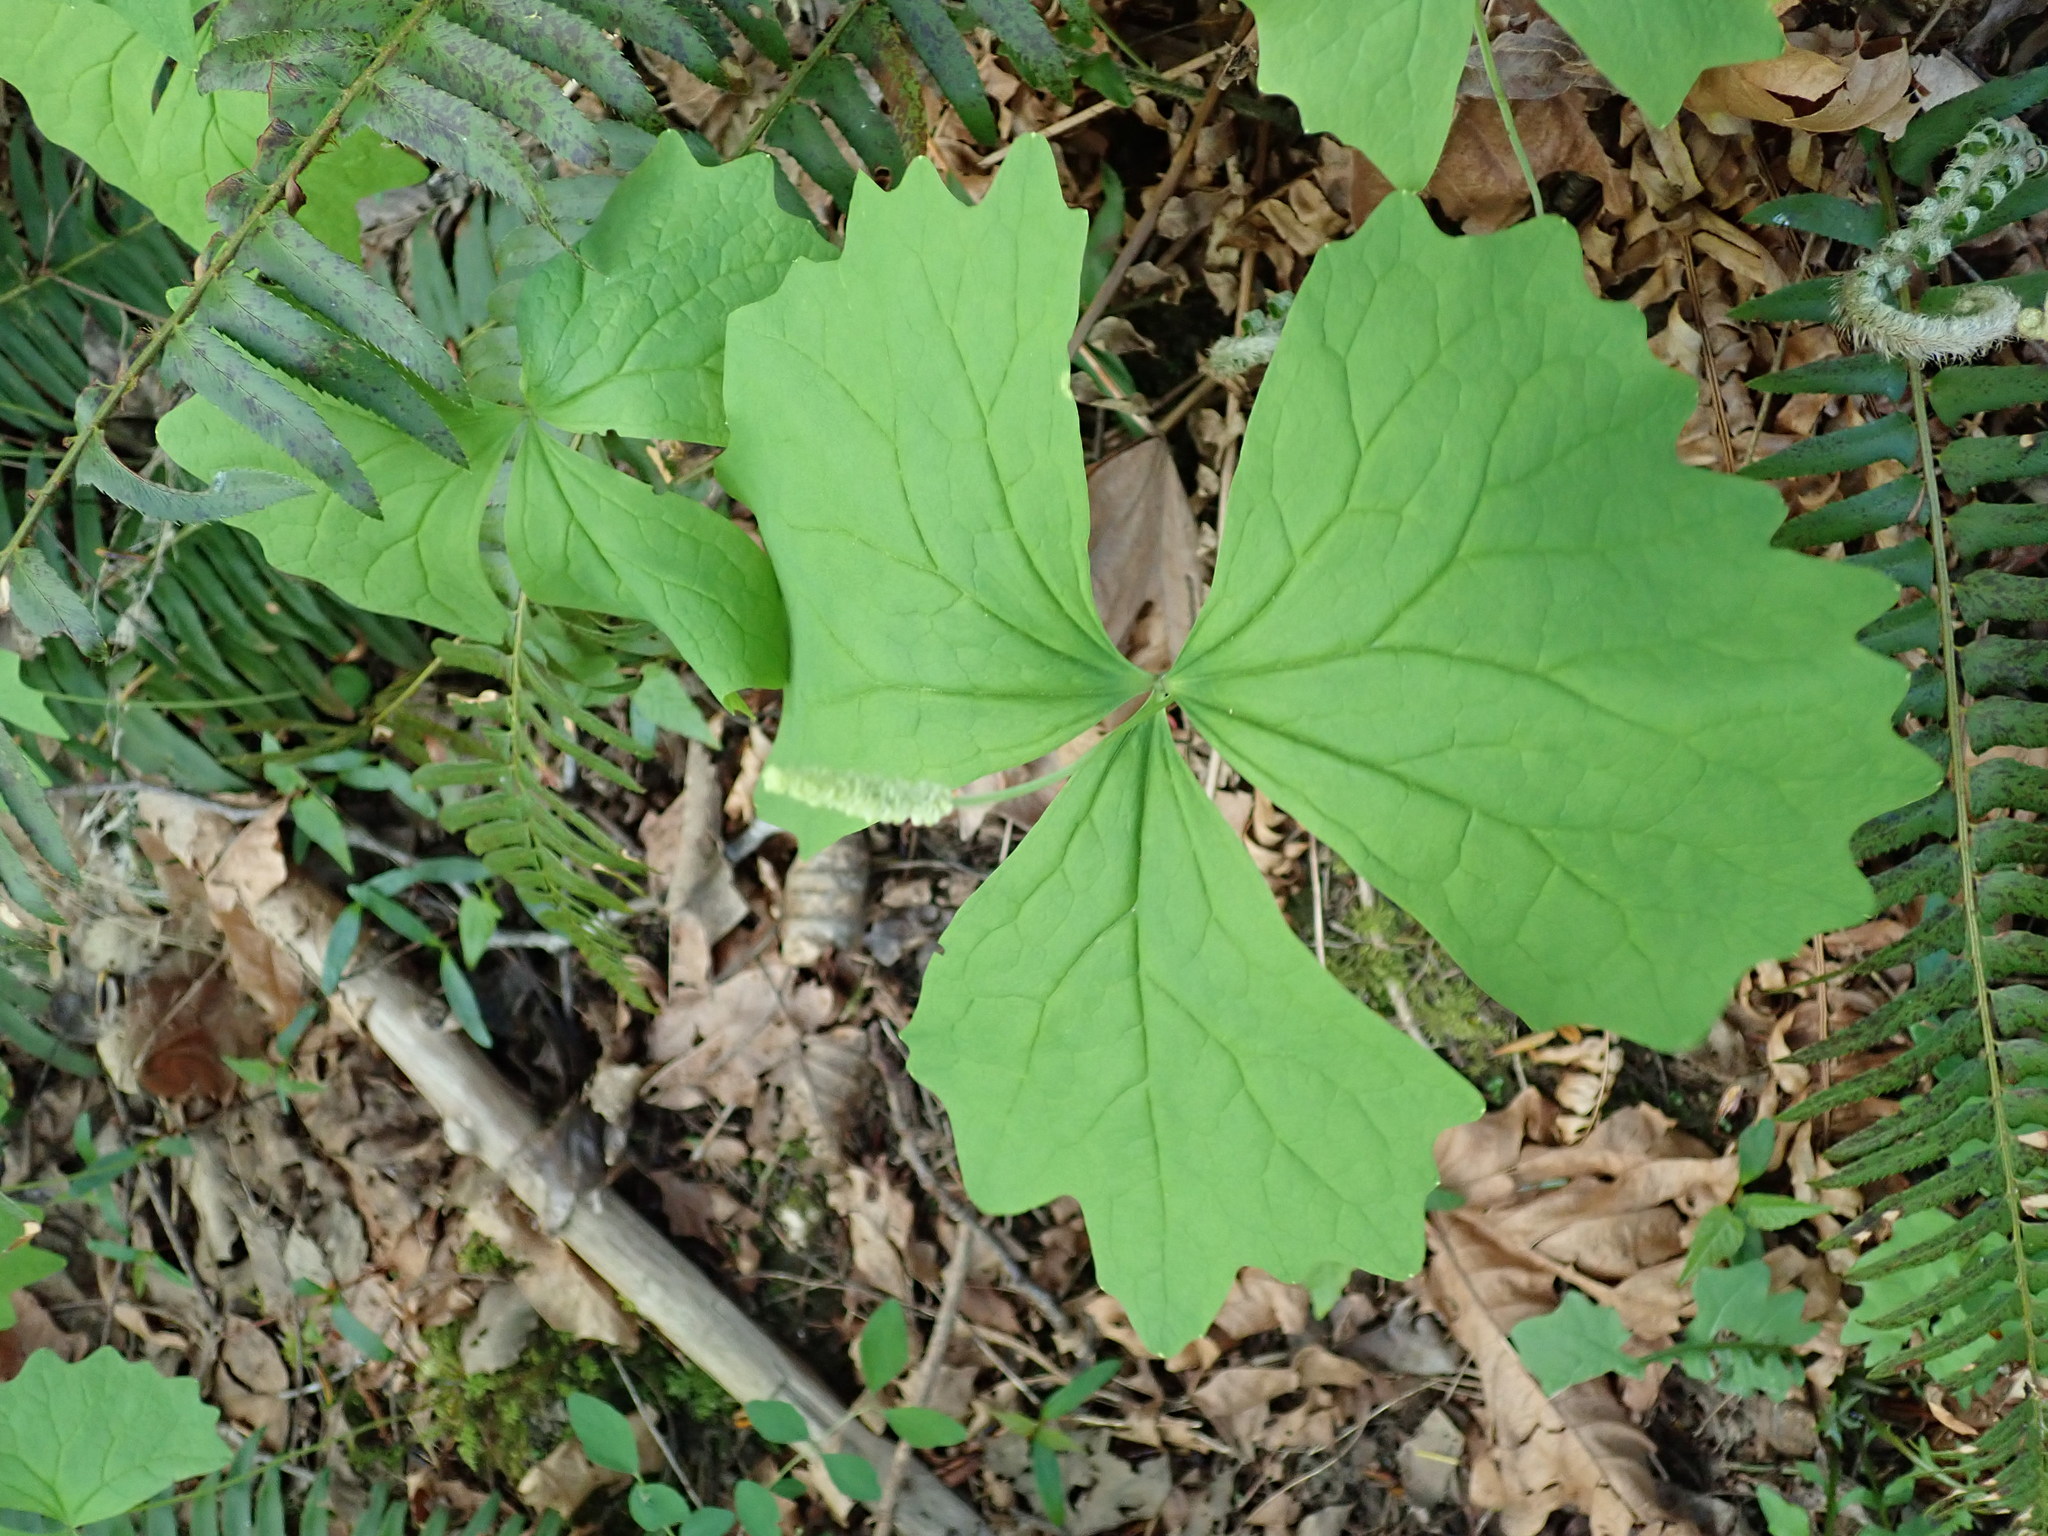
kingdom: Plantae
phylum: Tracheophyta
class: Magnoliopsida
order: Ranunculales
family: Berberidaceae
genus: Achlys
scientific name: Achlys triphylla
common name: Vanilla-leaf
